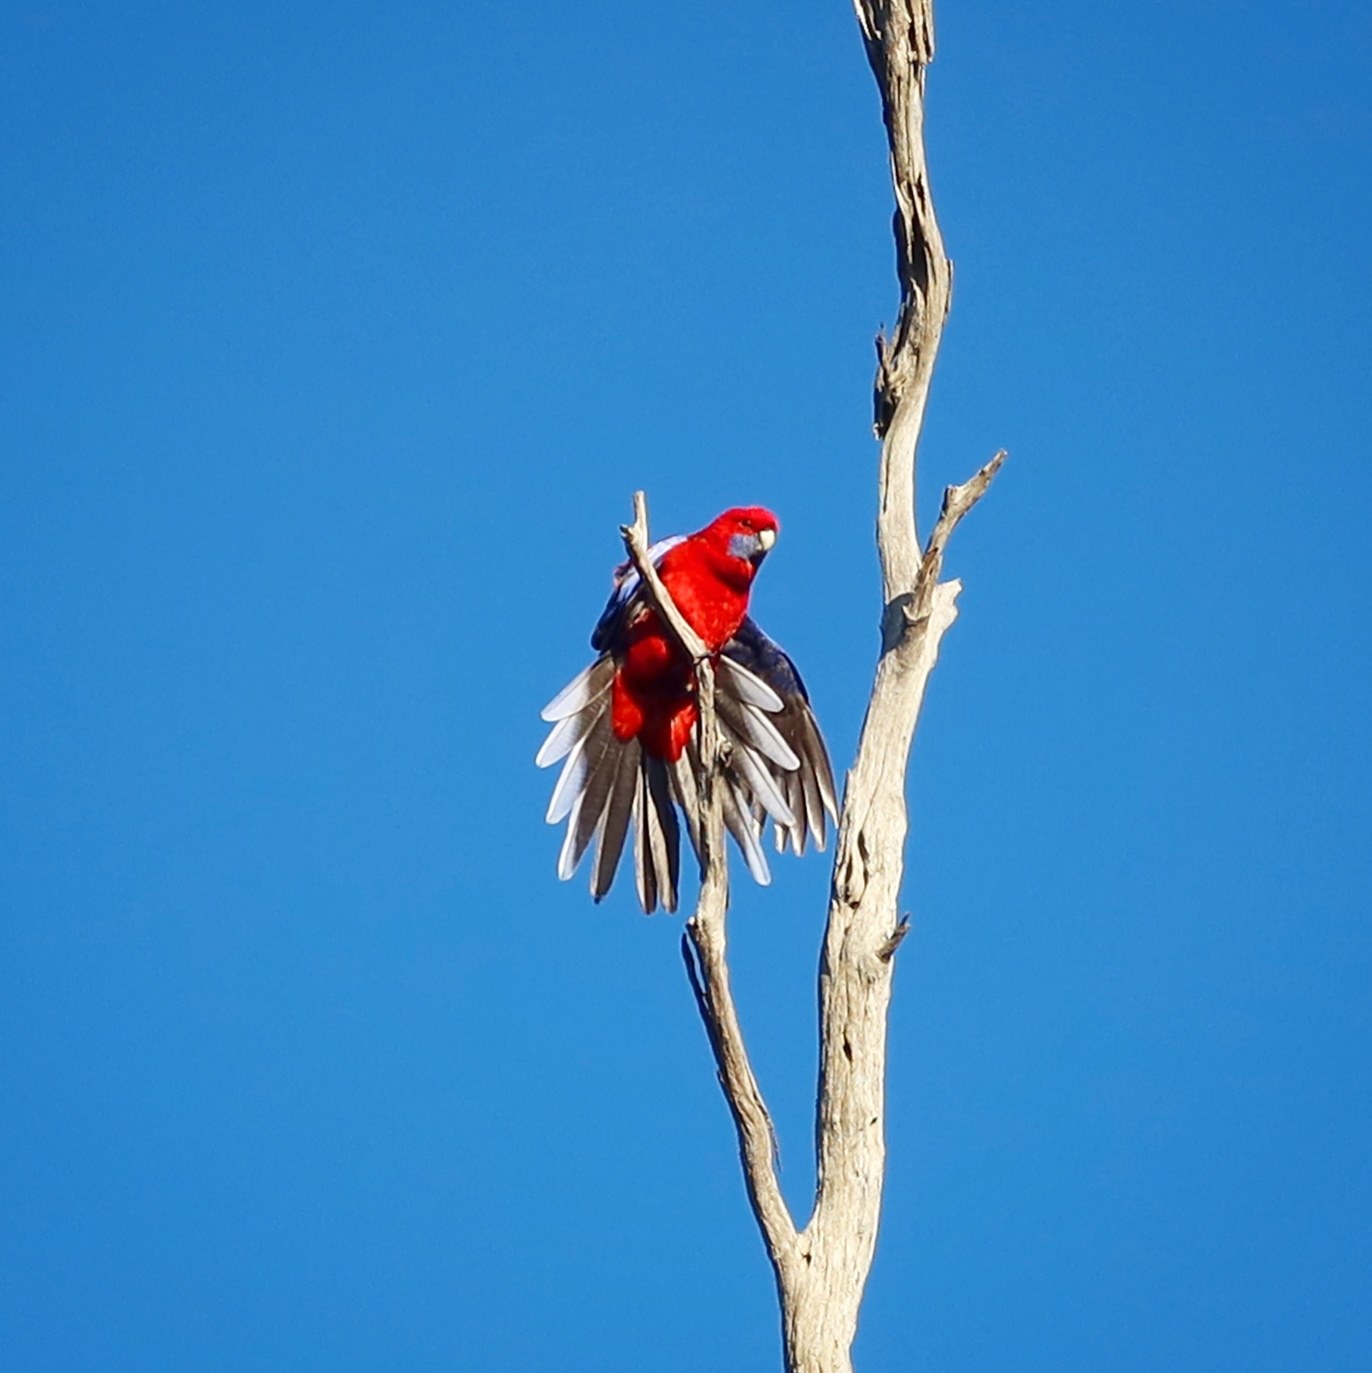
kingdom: Animalia
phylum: Chordata
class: Aves
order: Psittaciformes
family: Psittacidae
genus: Platycercus
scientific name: Platycercus elegans
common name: Crimson rosella
